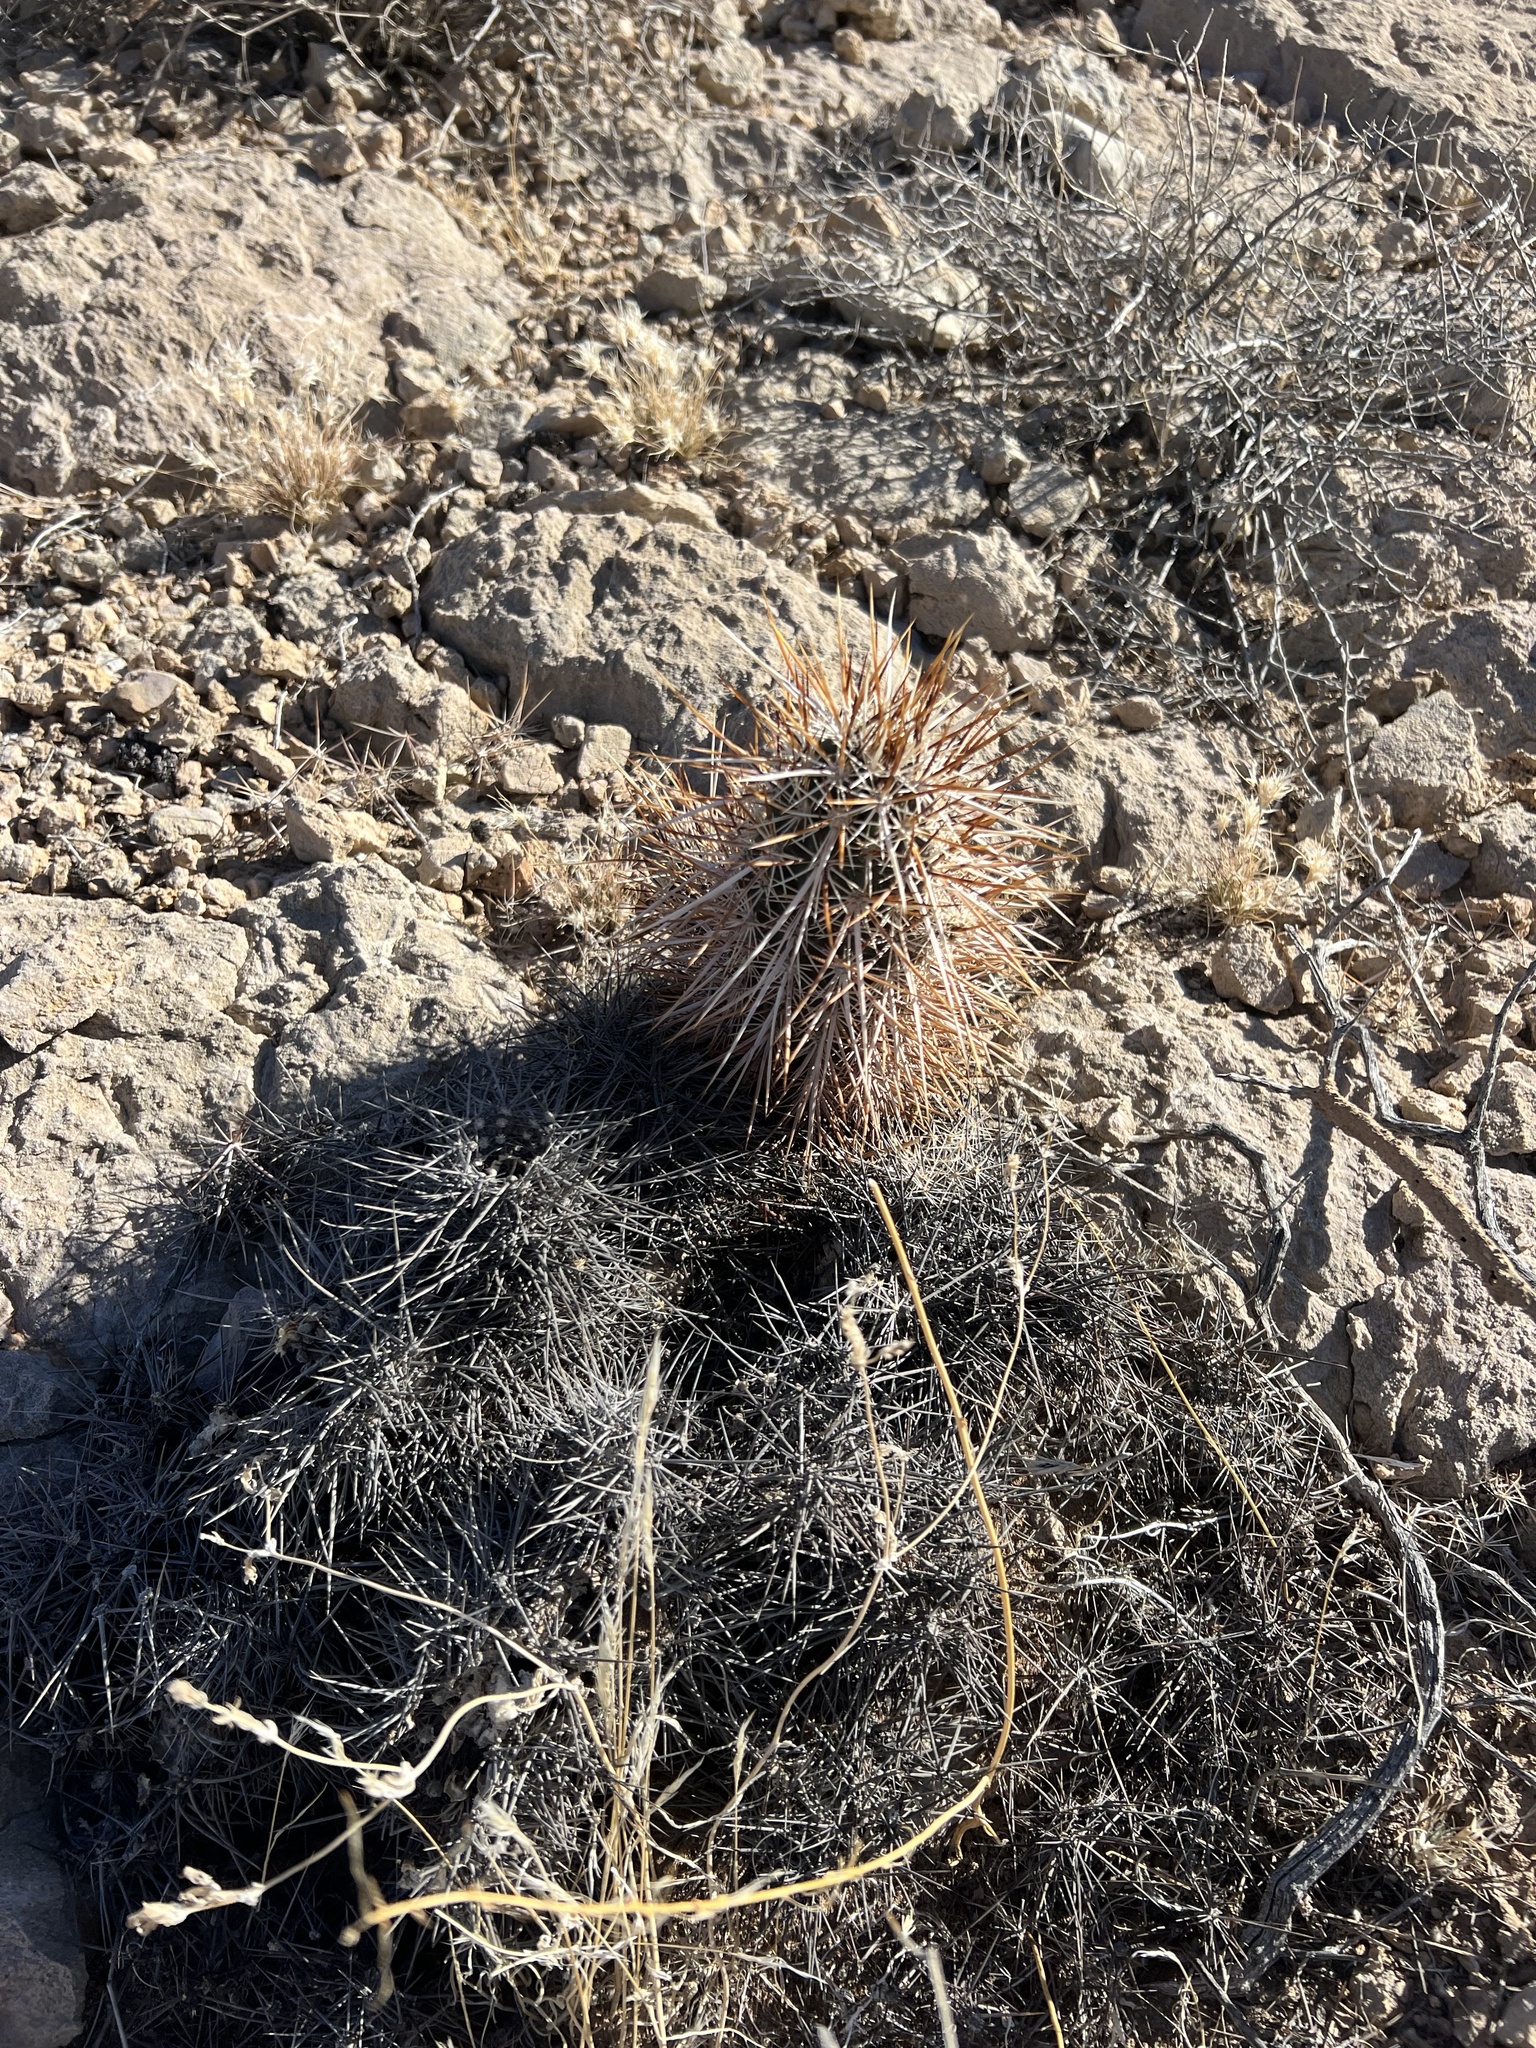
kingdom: Plantae
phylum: Tracheophyta
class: Magnoliopsida
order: Caryophyllales
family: Cactaceae
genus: Echinocereus
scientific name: Echinocereus engelmannii
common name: Engelmann's hedgehog cactus
